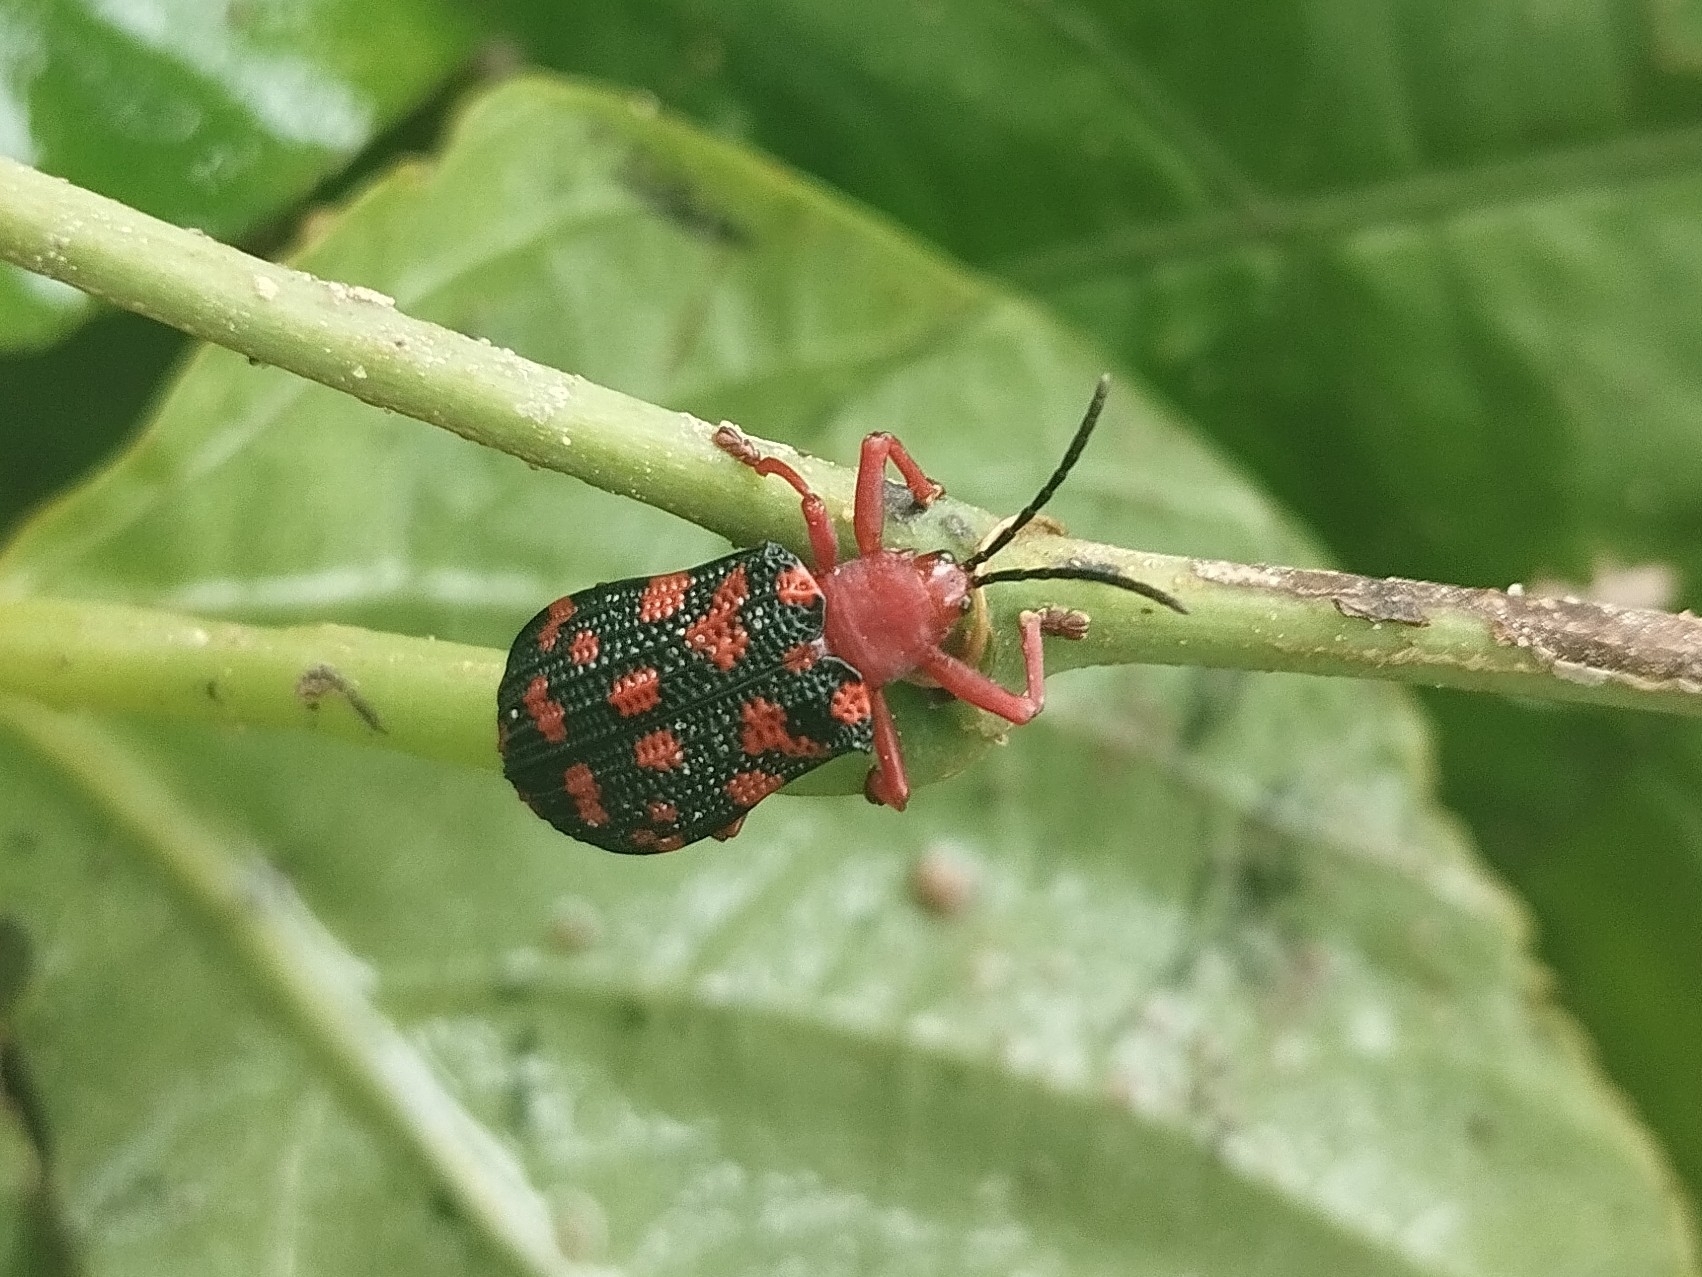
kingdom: Animalia
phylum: Arthropoda
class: Insecta
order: Coleoptera
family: Chrysomelidae
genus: Sceloenopla
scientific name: Sceloenopla maculata
